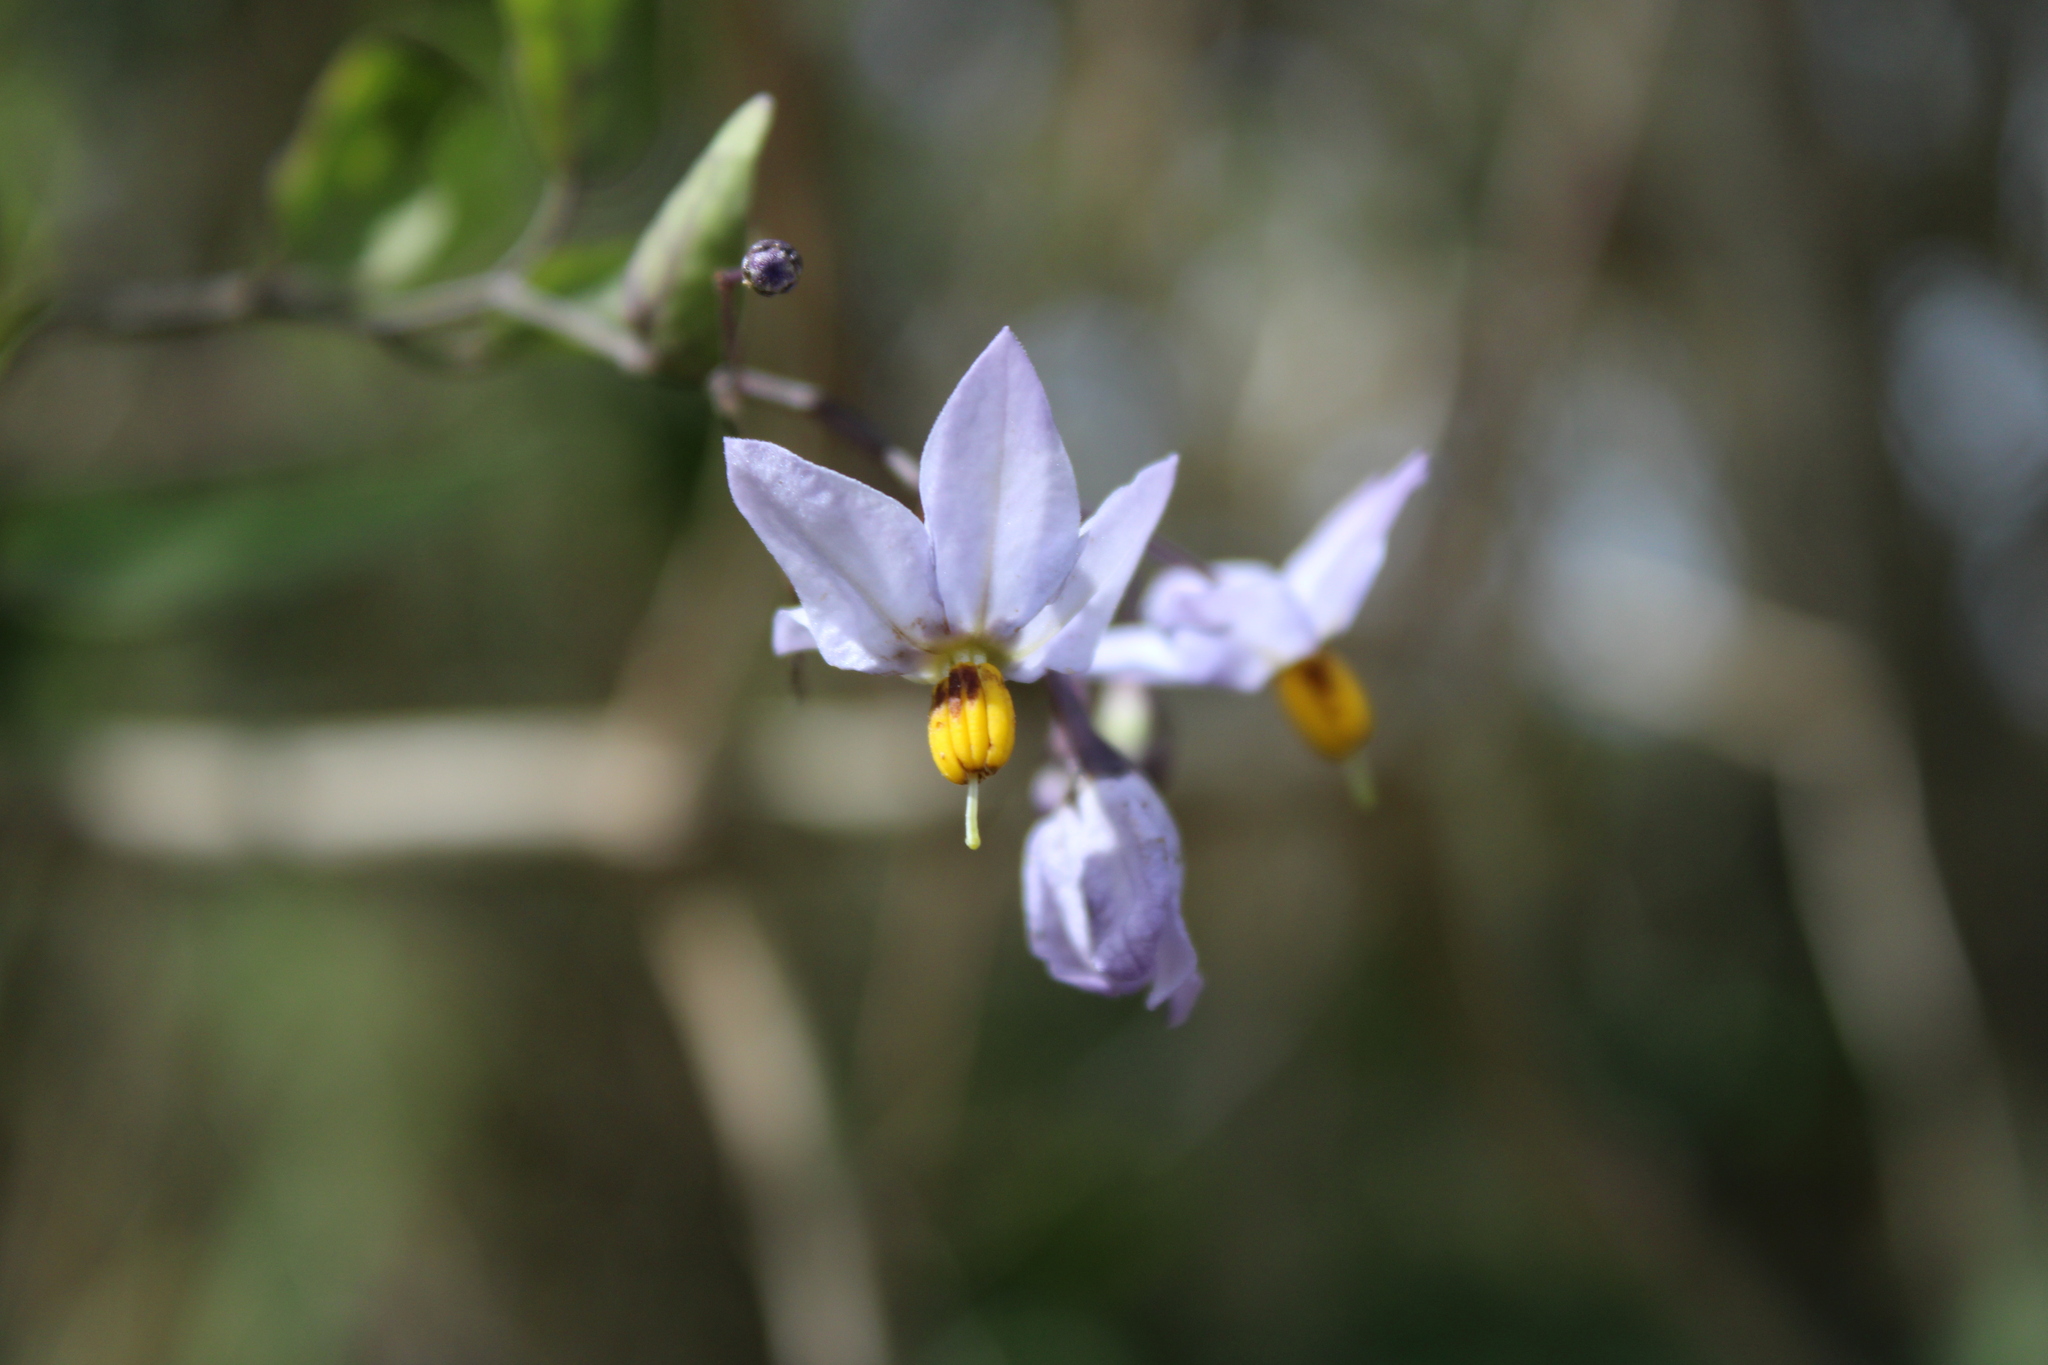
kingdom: Plantae
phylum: Tracheophyta
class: Magnoliopsida
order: Solanales
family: Solanaceae
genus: Solanum
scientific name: Solanum laxum
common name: Nightshade
